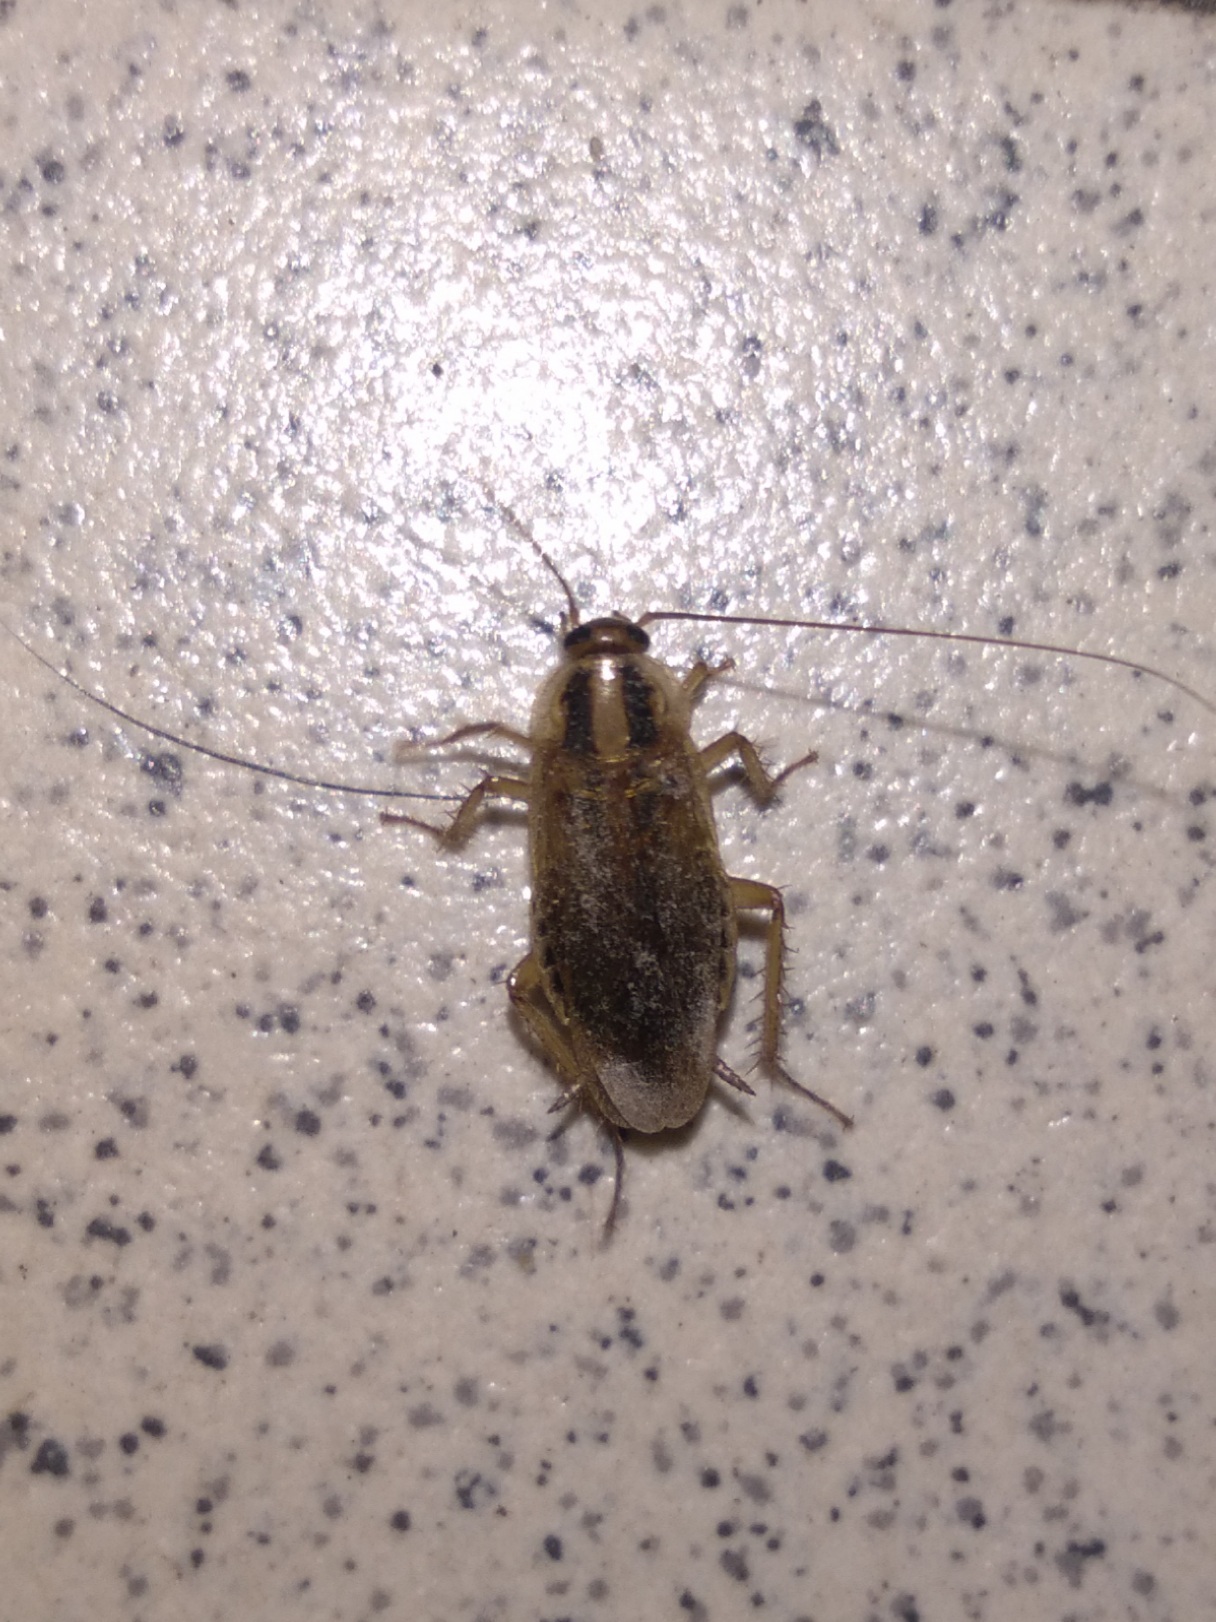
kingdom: Animalia
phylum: Arthropoda
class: Insecta
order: Blattodea
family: Ectobiidae
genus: Blattella
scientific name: Blattella germanica
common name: German cockroach
